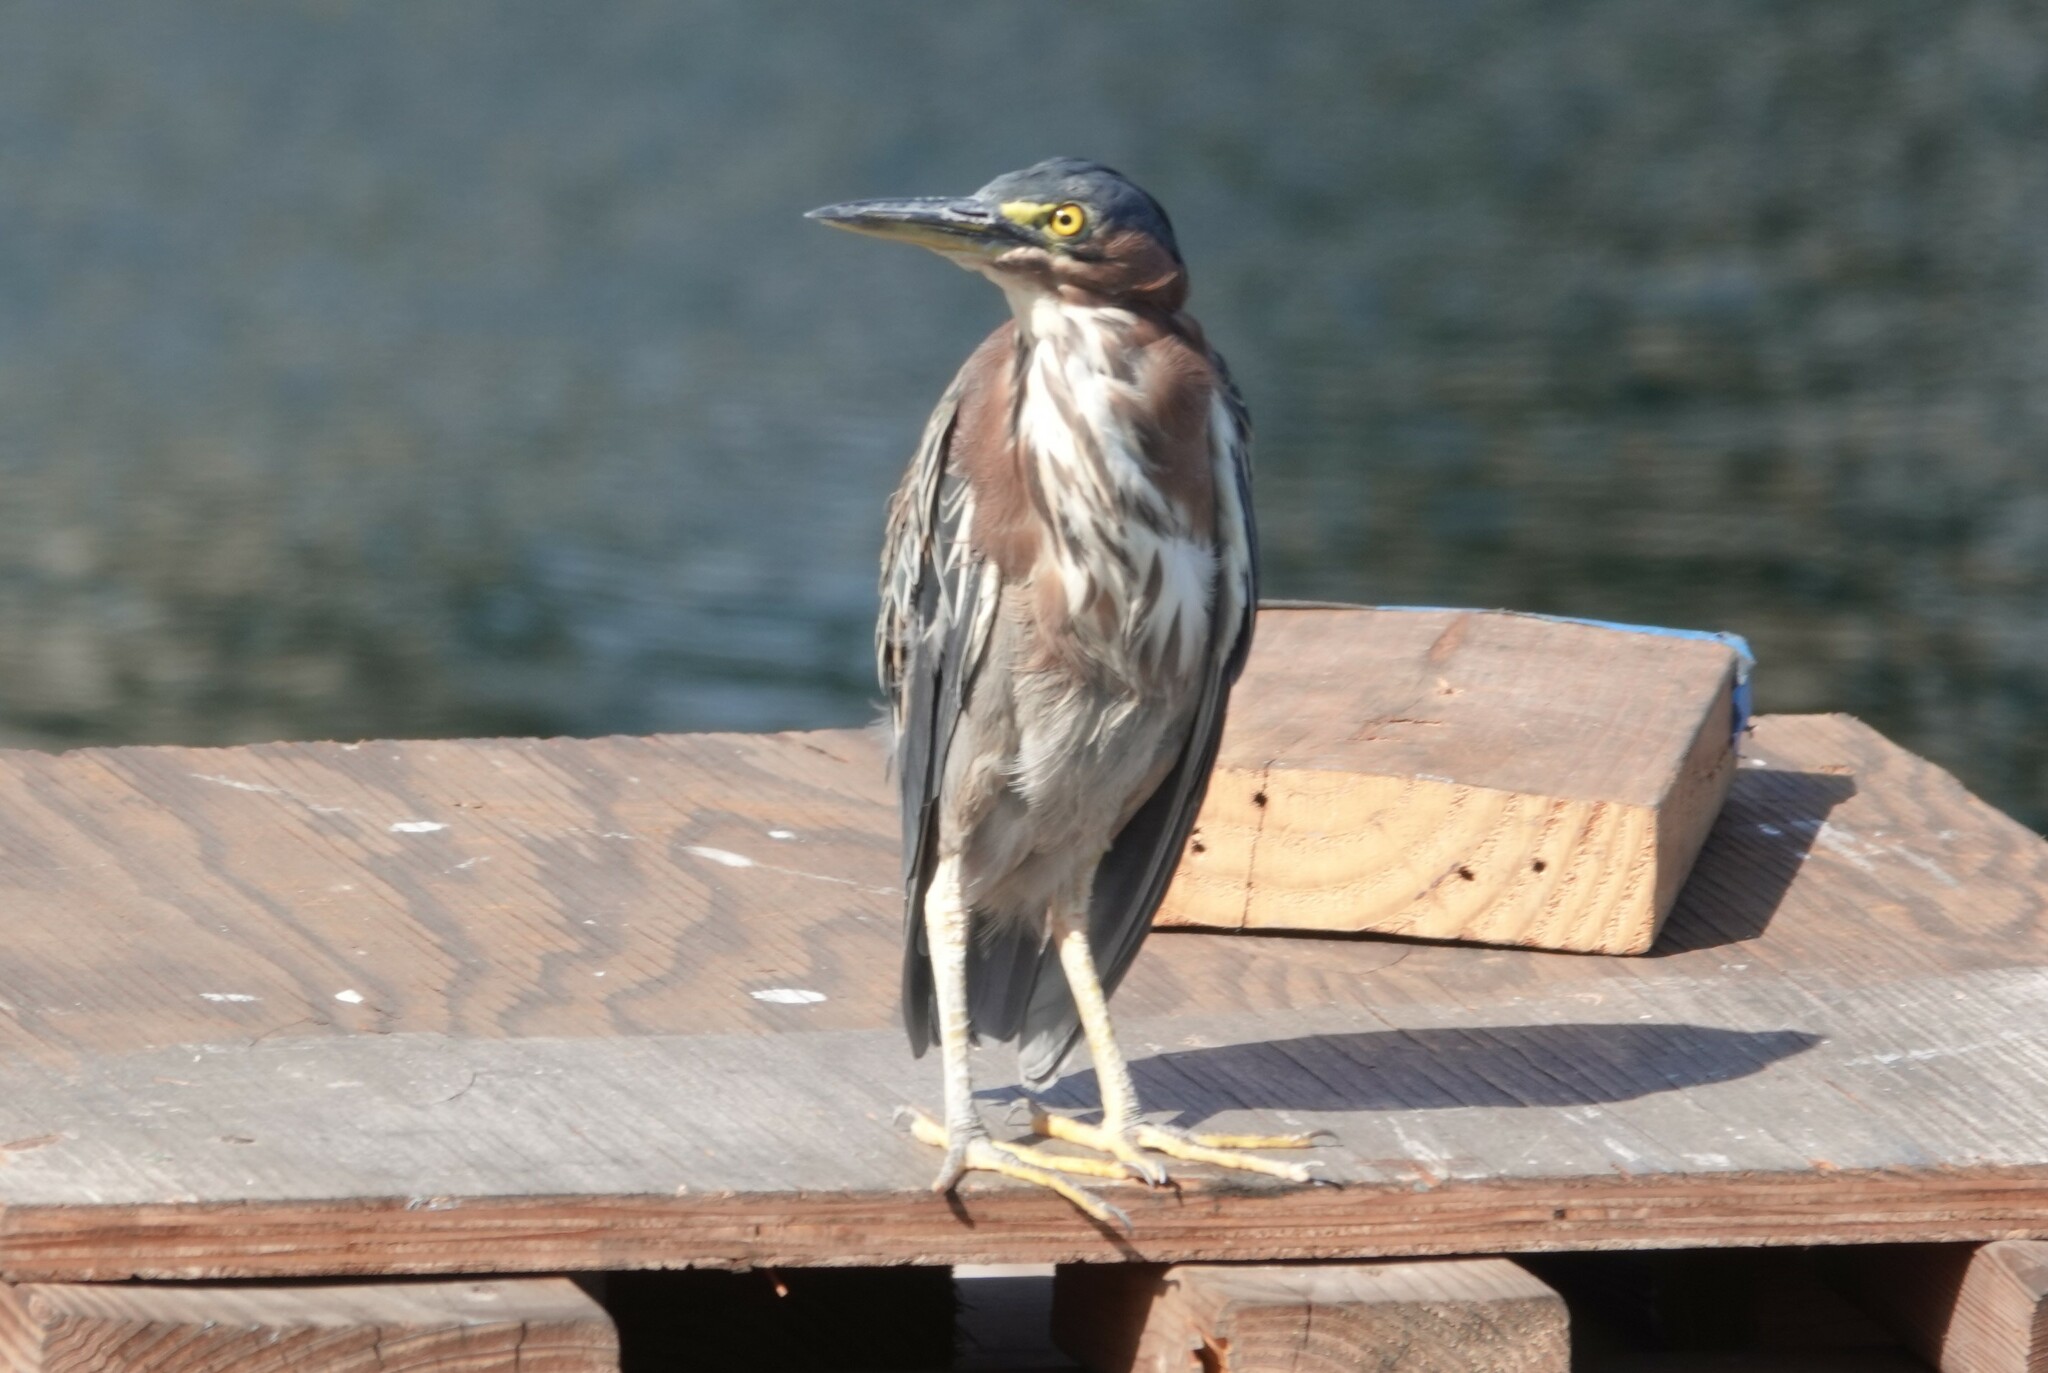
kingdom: Animalia
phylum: Chordata
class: Aves
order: Pelecaniformes
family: Ardeidae
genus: Butorides
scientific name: Butorides virescens
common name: Green heron
